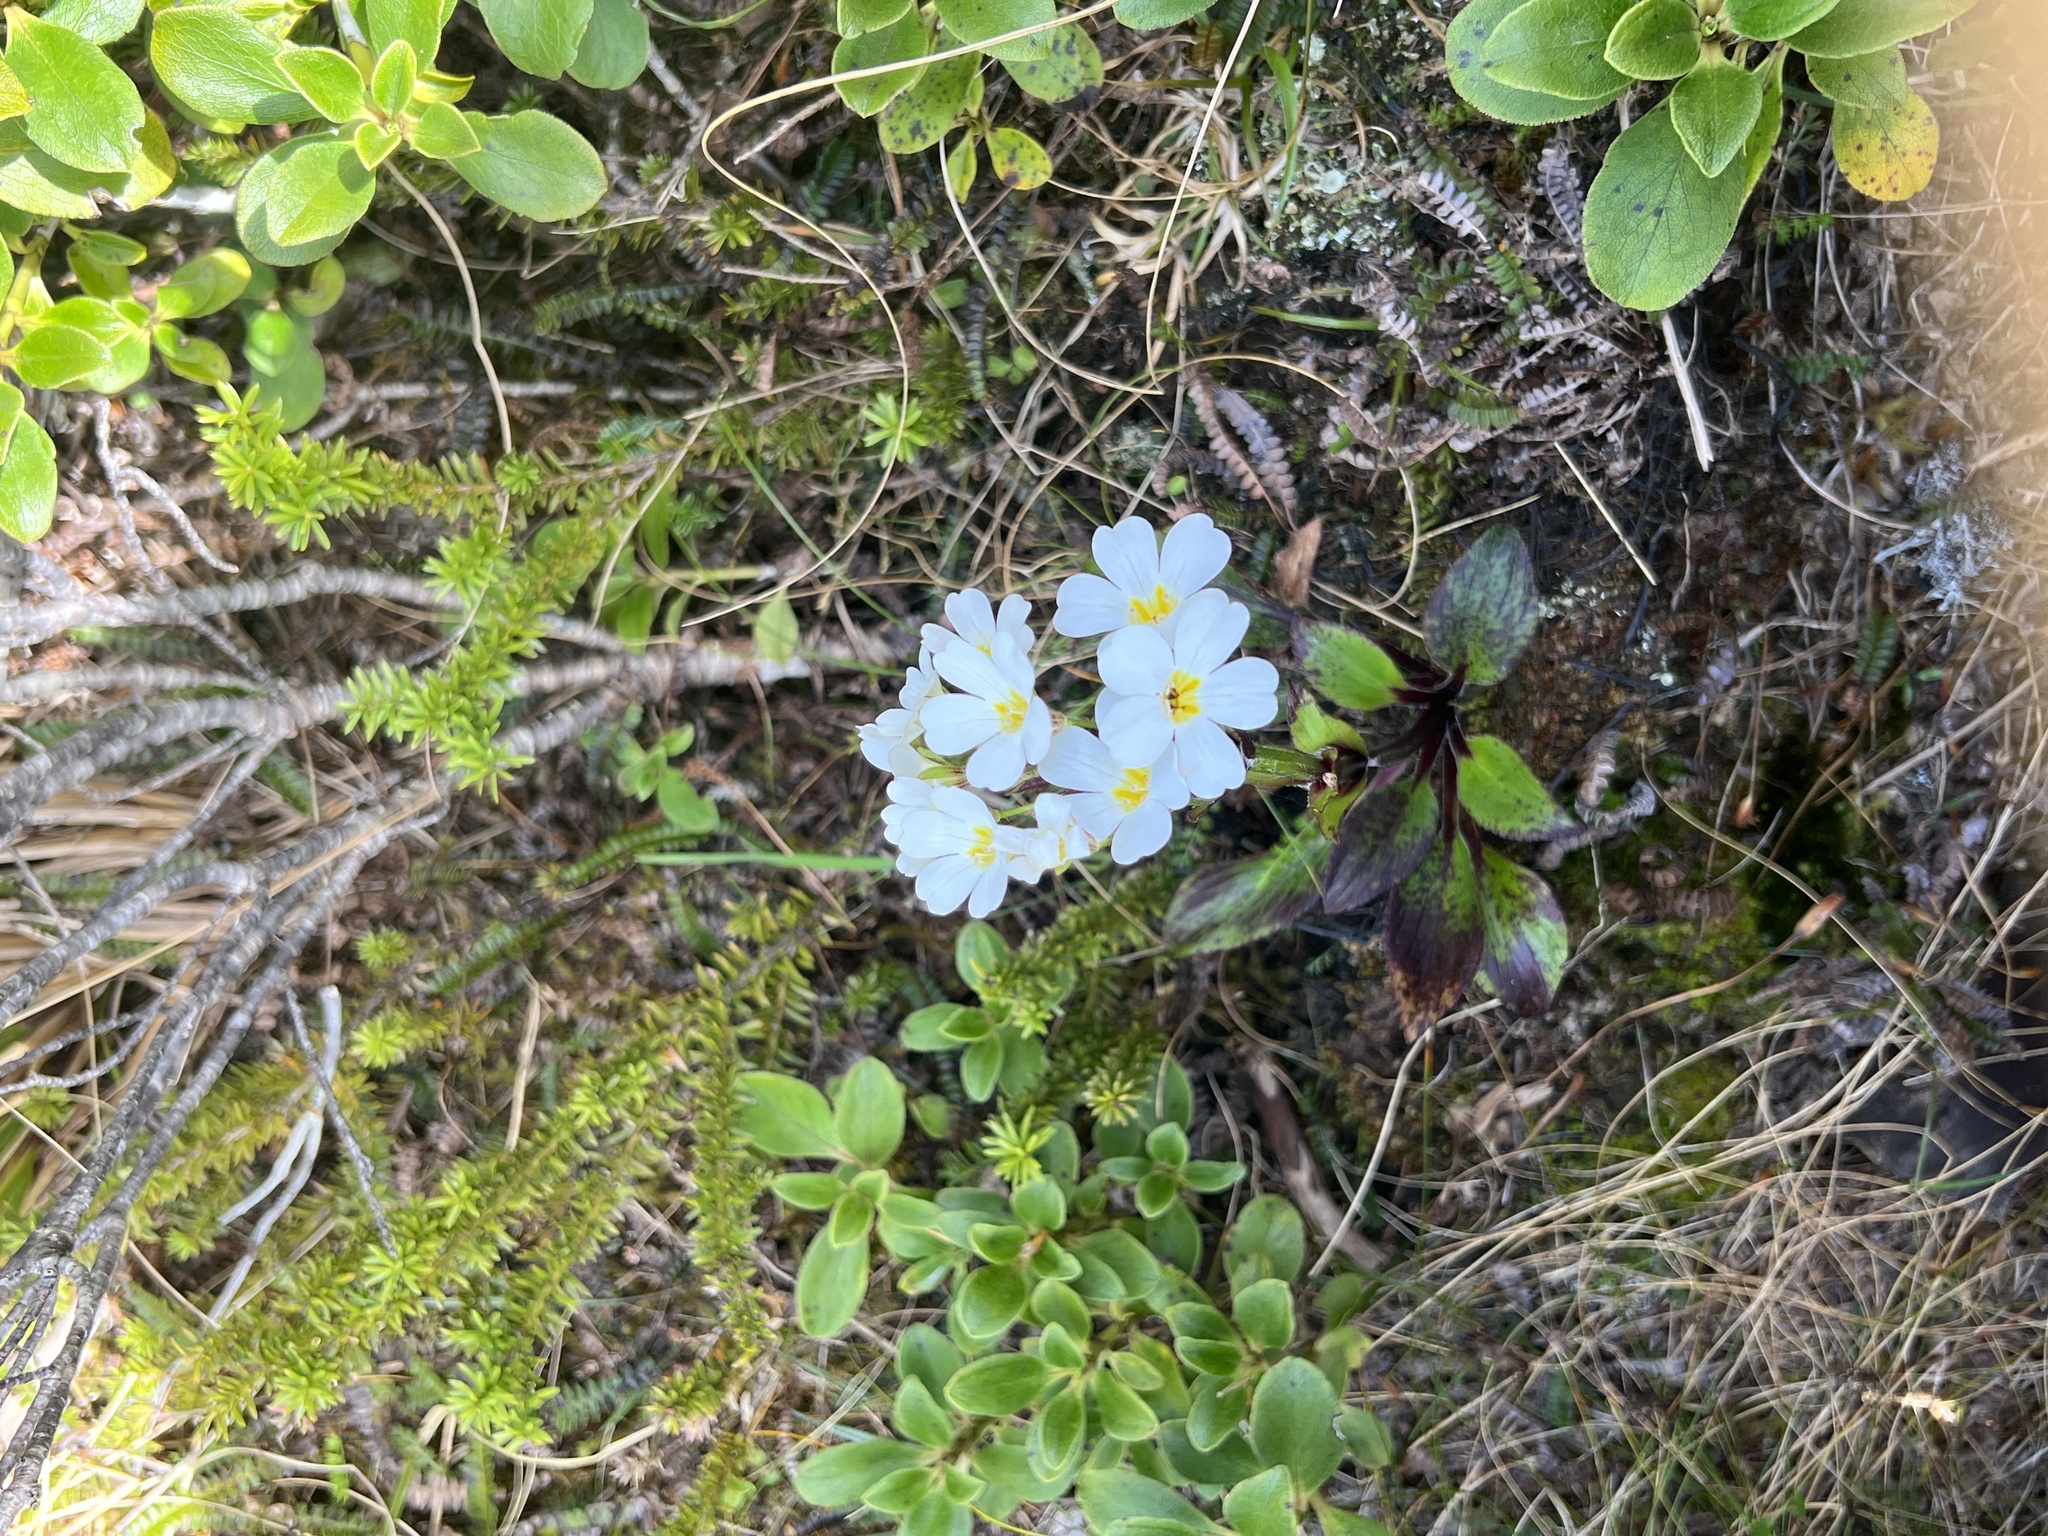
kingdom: Plantae
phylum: Tracheophyta
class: Magnoliopsida
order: Lamiales
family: Plantaginaceae
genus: Ourisia
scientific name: Ourisia calycina
